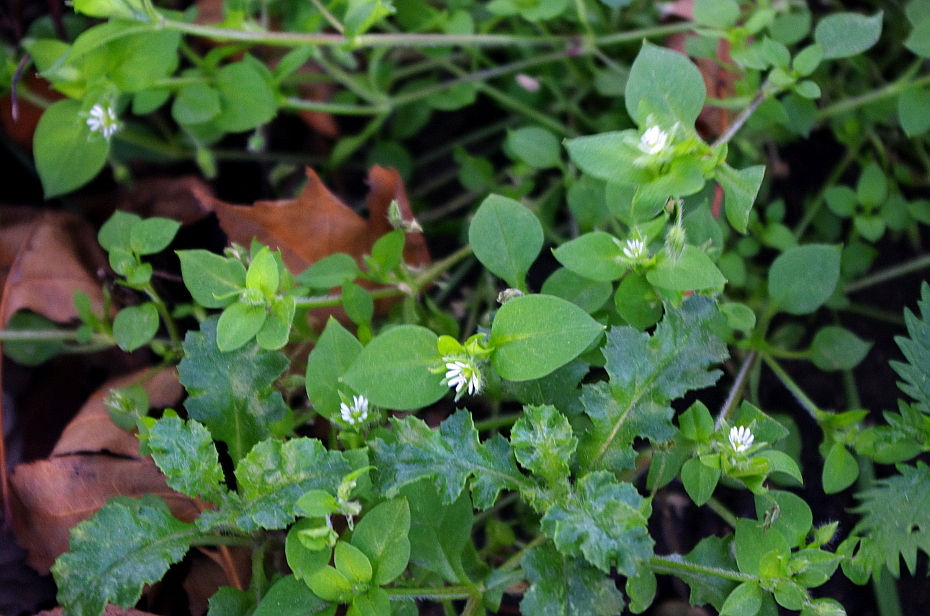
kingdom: Plantae
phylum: Tracheophyta
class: Magnoliopsida
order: Caryophyllales
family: Caryophyllaceae
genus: Stellaria
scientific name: Stellaria media
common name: Common chickweed
